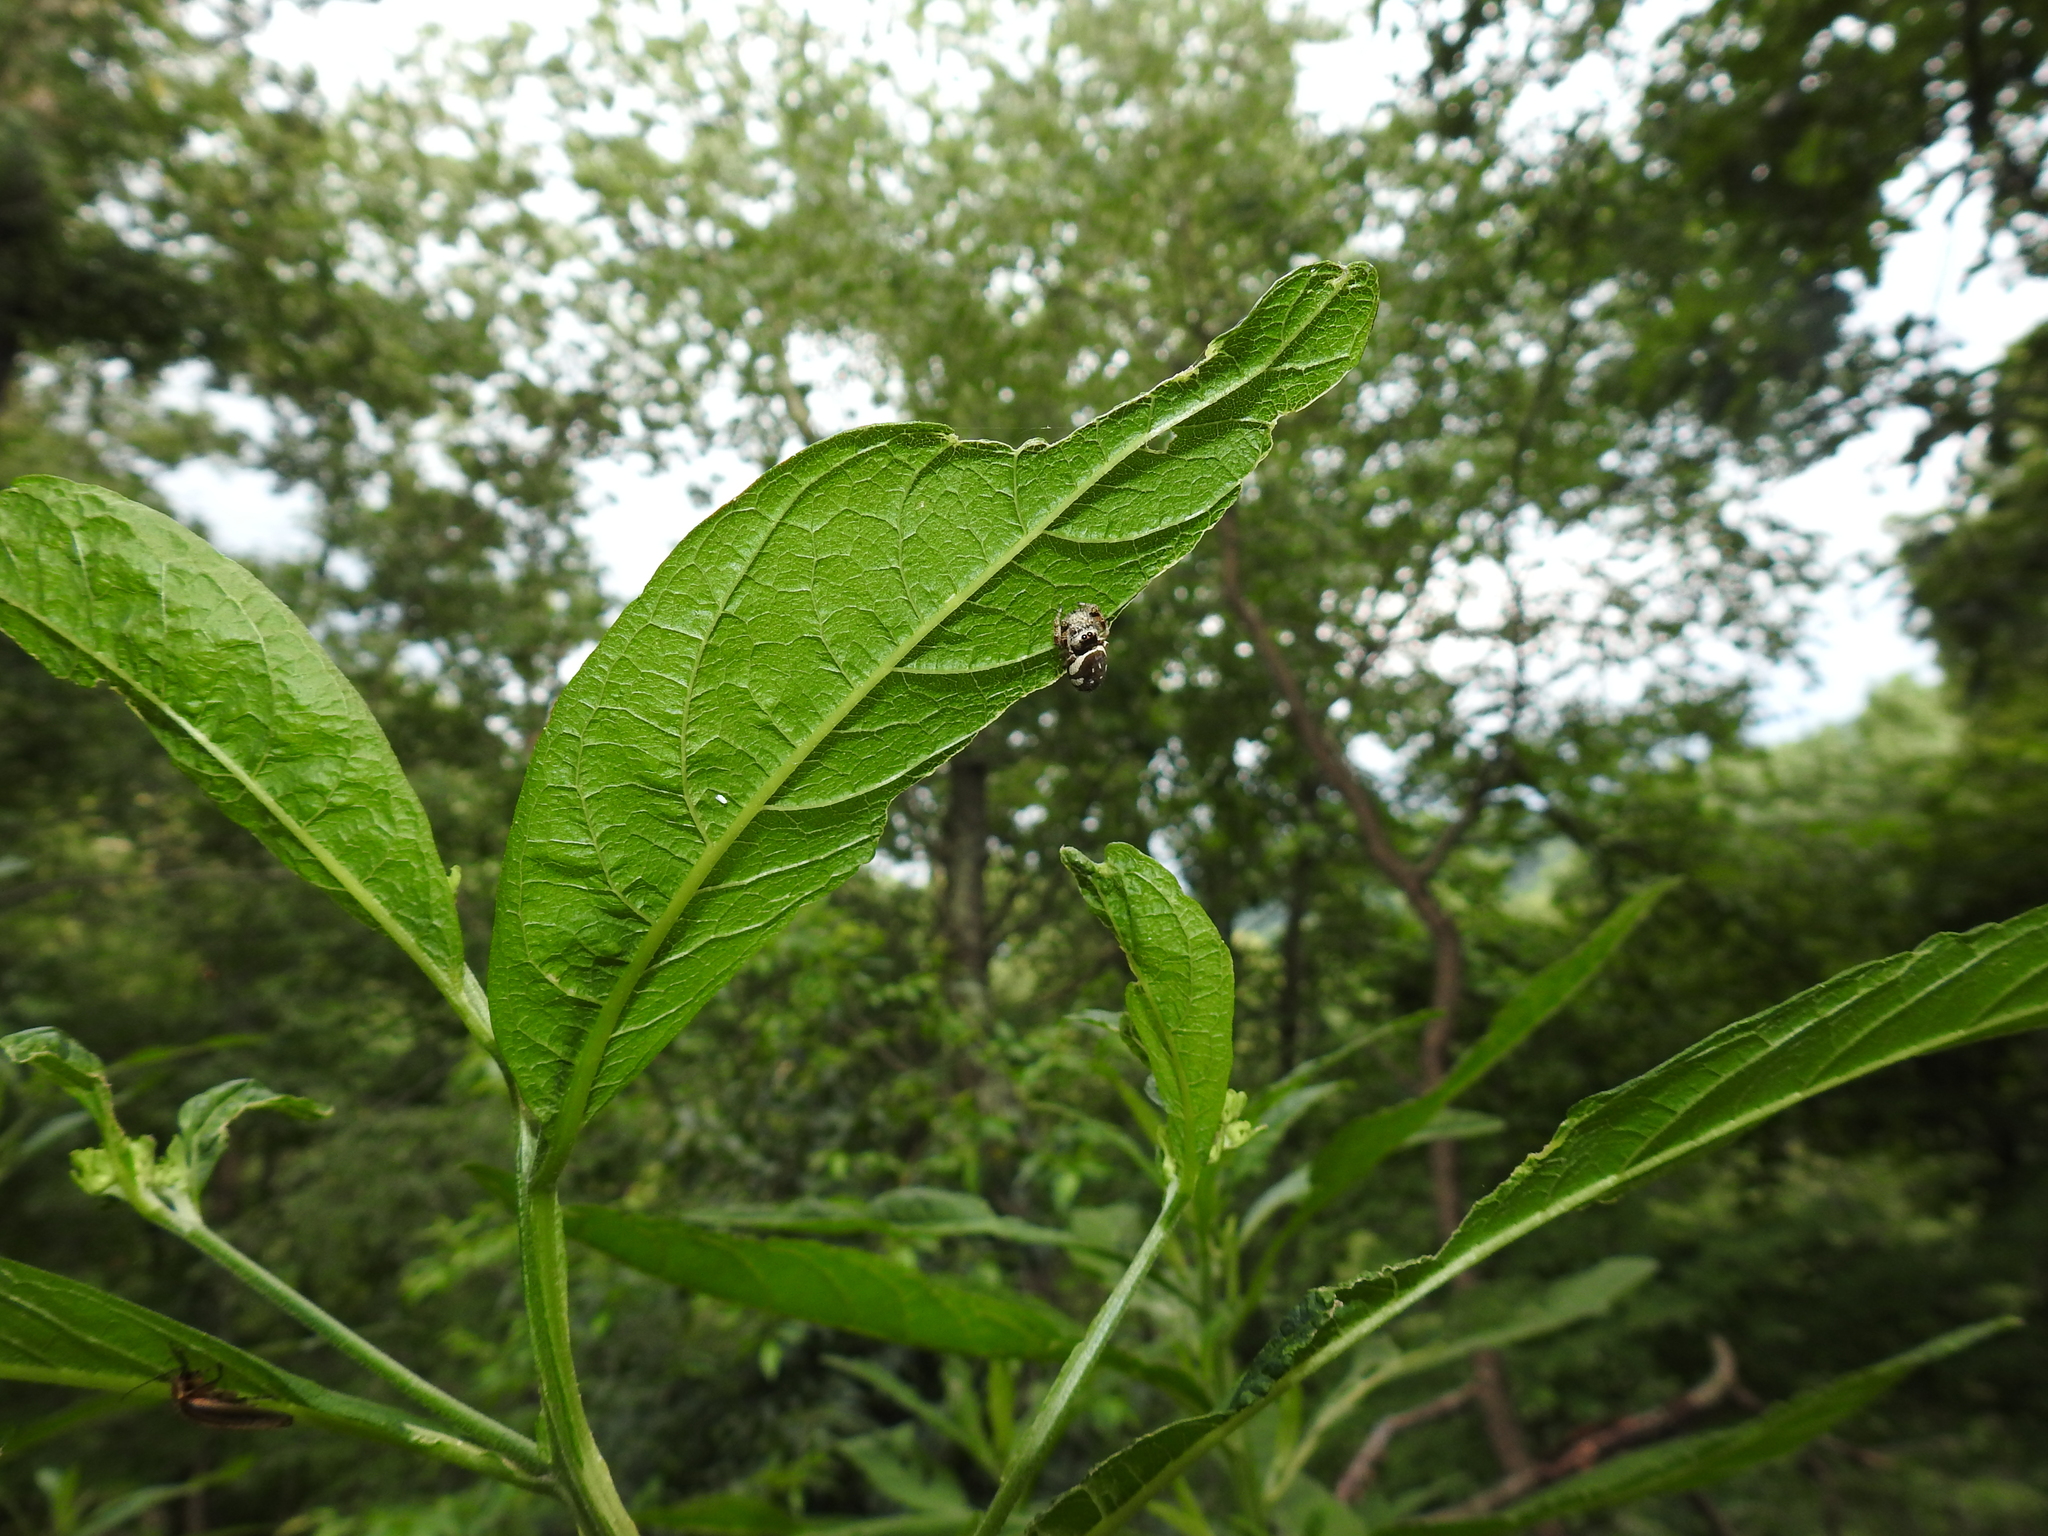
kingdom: Animalia
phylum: Arthropoda
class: Arachnida
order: Araneae
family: Salticidae
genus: Paraphidippus
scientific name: Paraphidippus aurantius
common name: Jumping spiders
